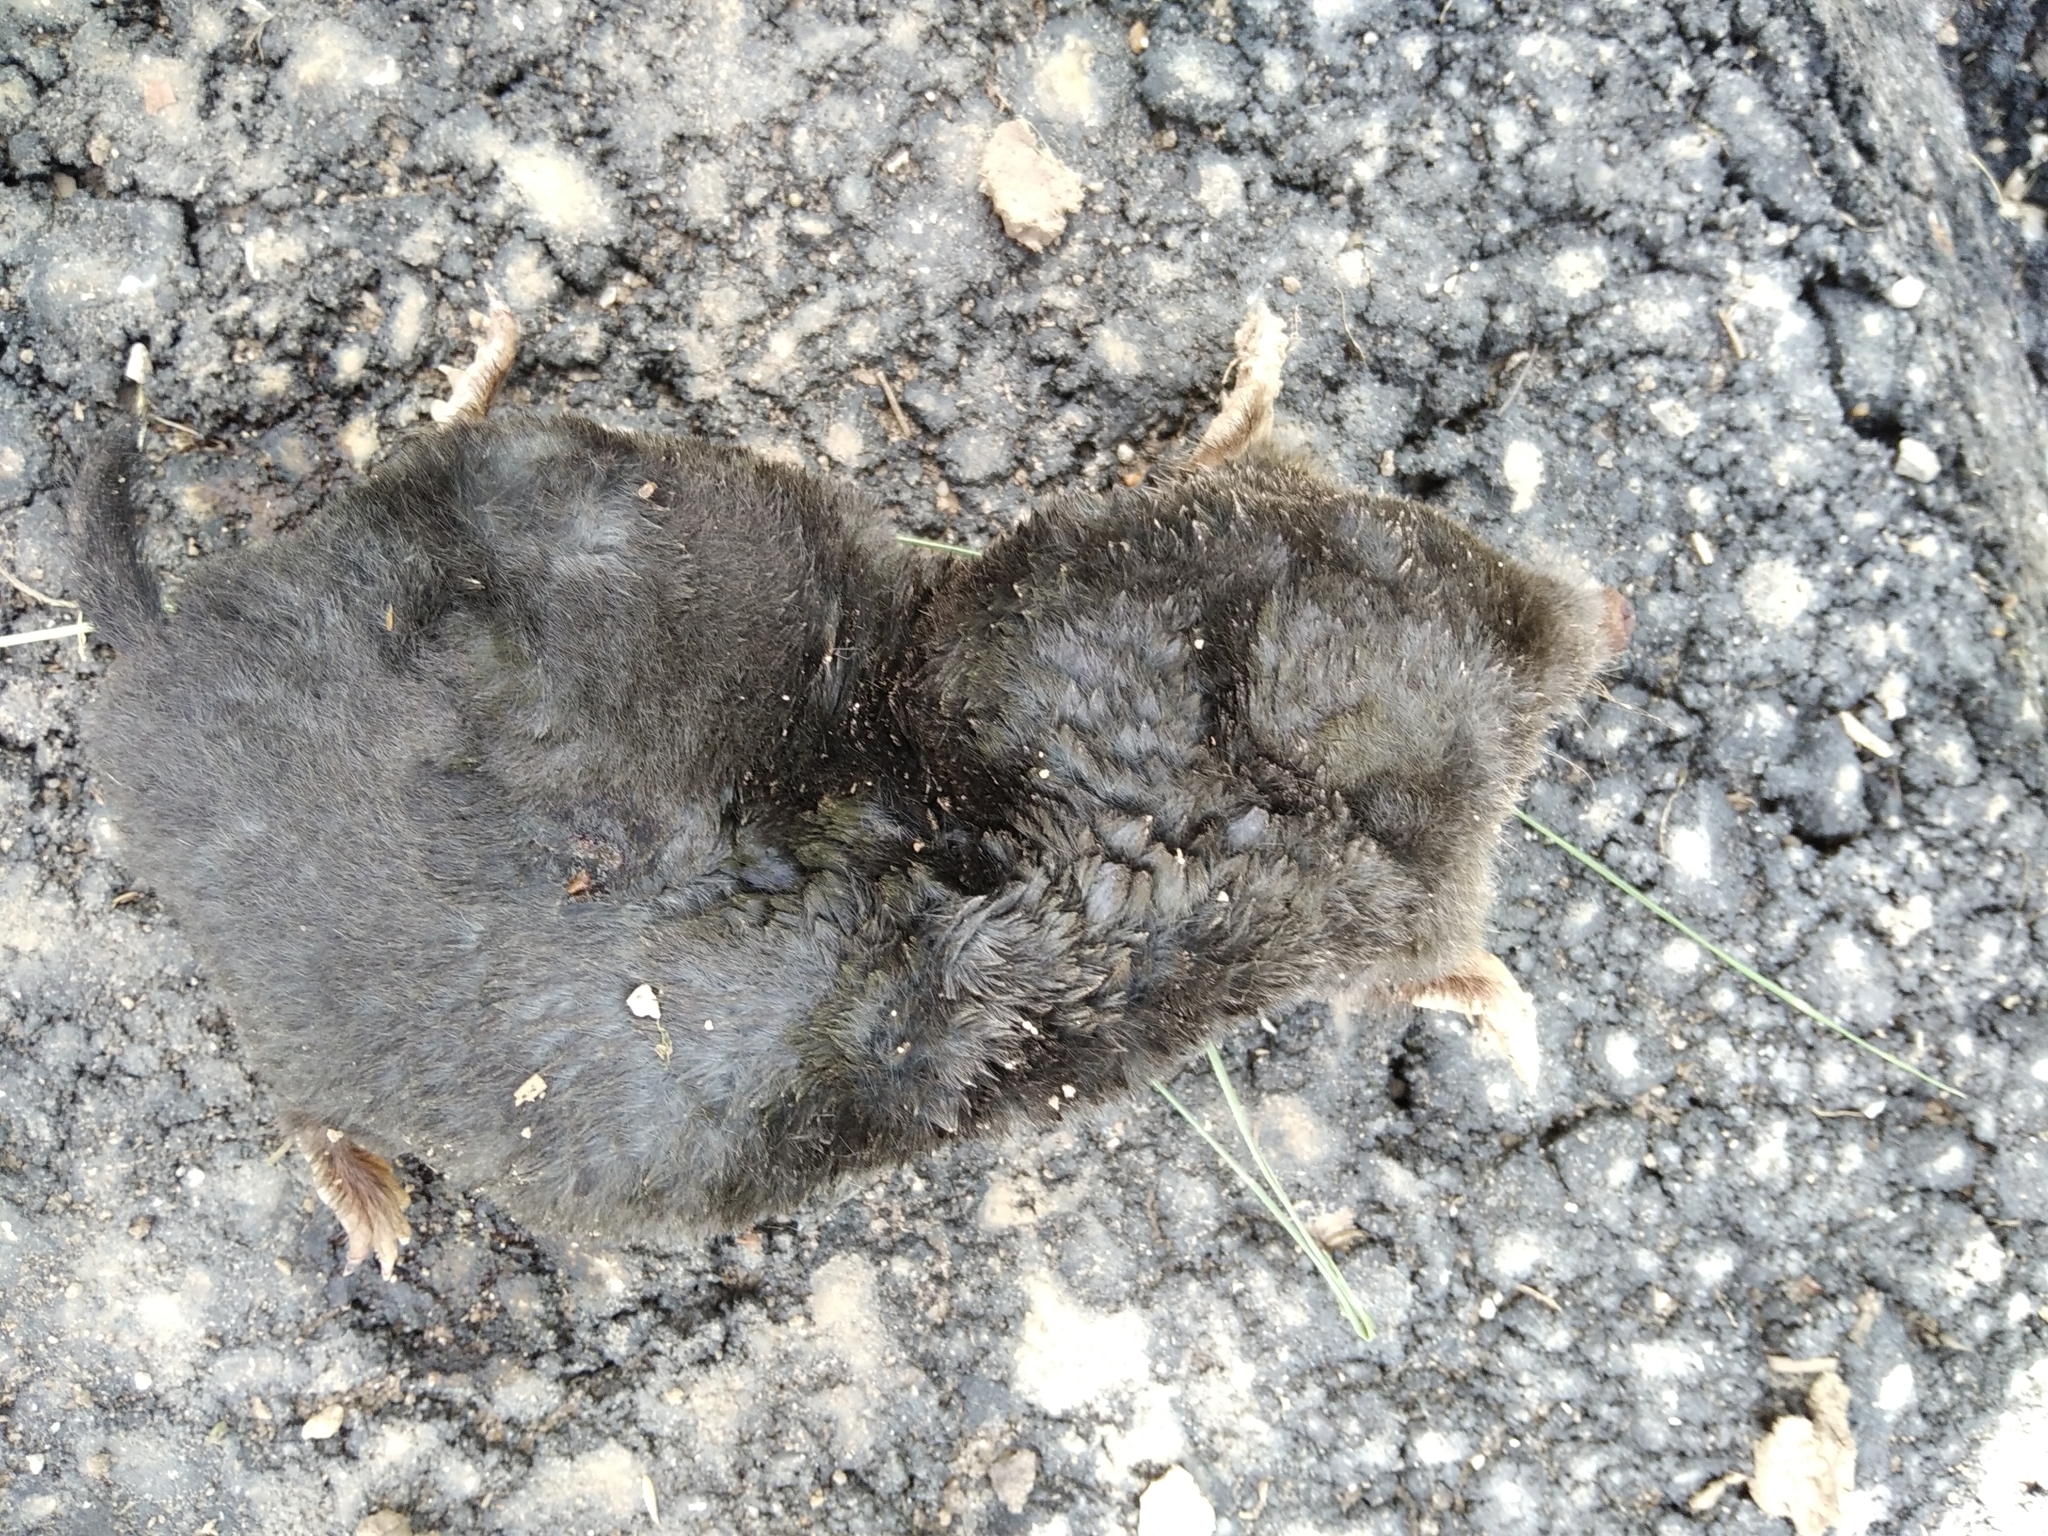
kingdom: Animalia
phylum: Chordata
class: Mammalia
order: Soricomorpha
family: Talpidae
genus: Talpa
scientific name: Talpa europaea
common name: European mole
